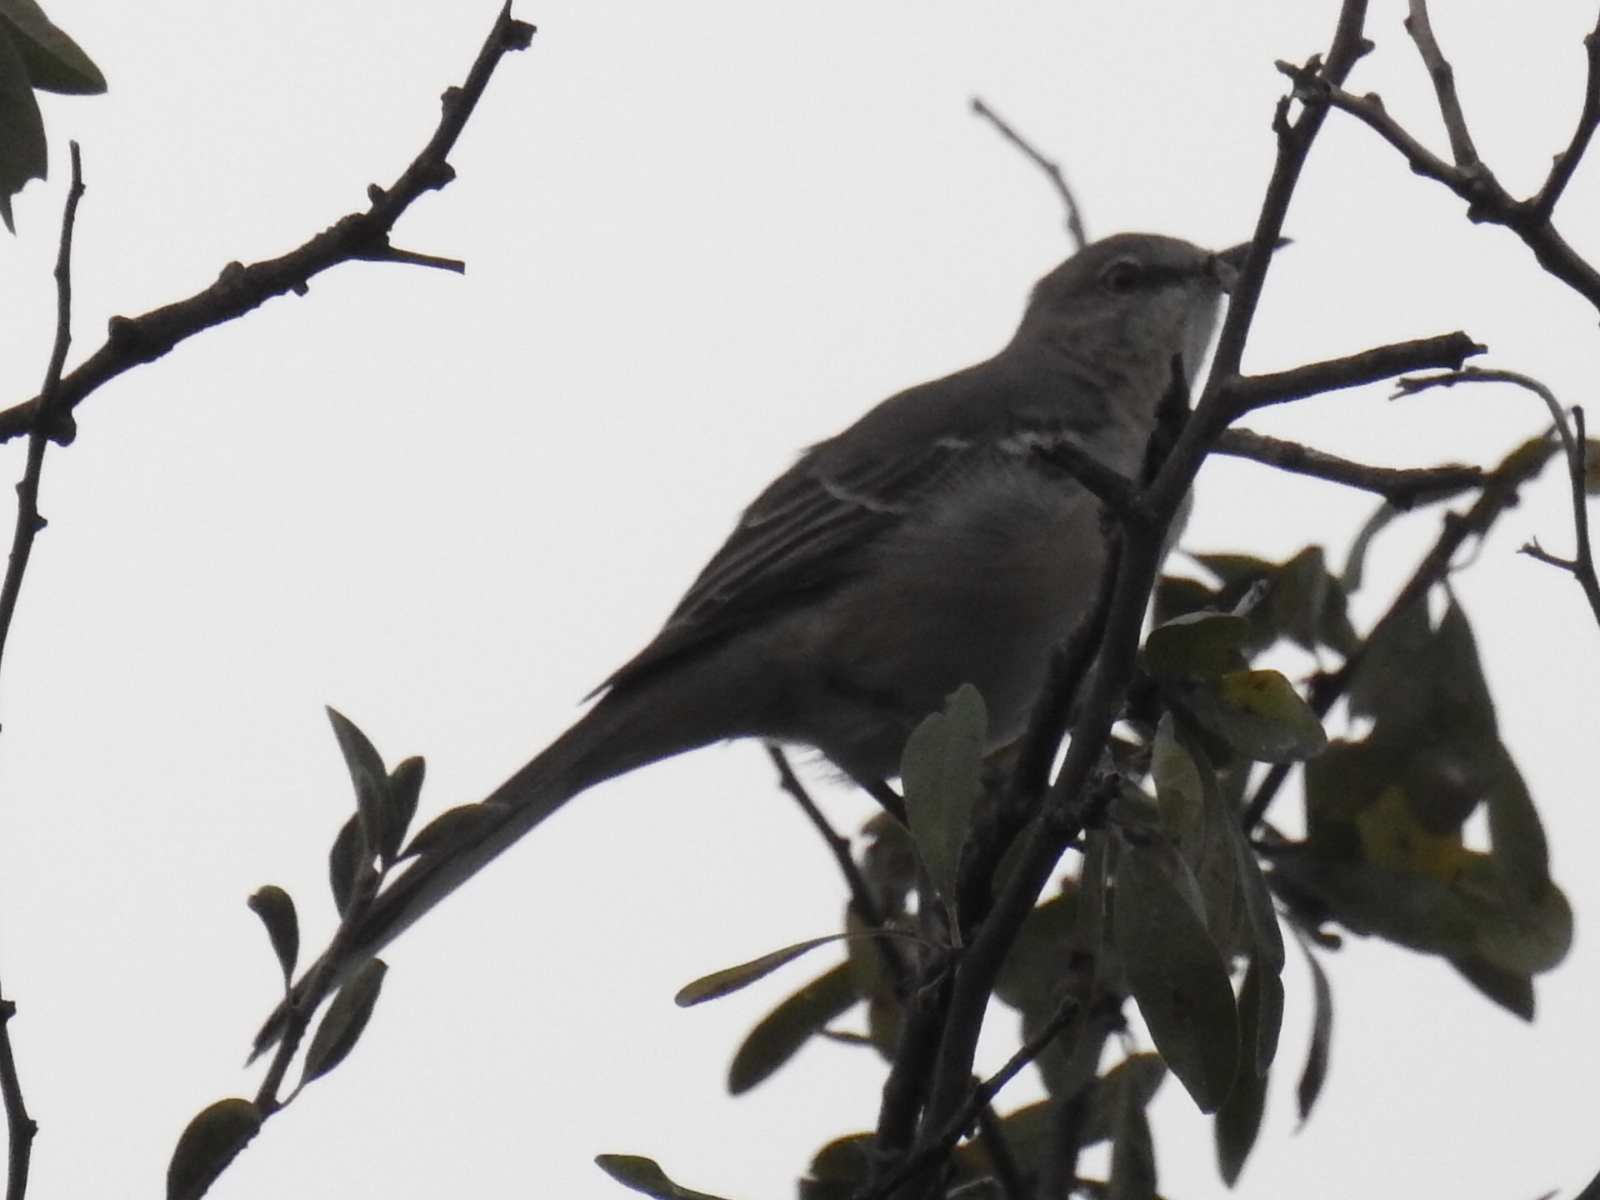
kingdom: Animalia
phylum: Chordata
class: Aves
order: Passeriformes
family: Mimidae
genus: Mimus
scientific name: Mimus polyglottos
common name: Northern mockingbird
